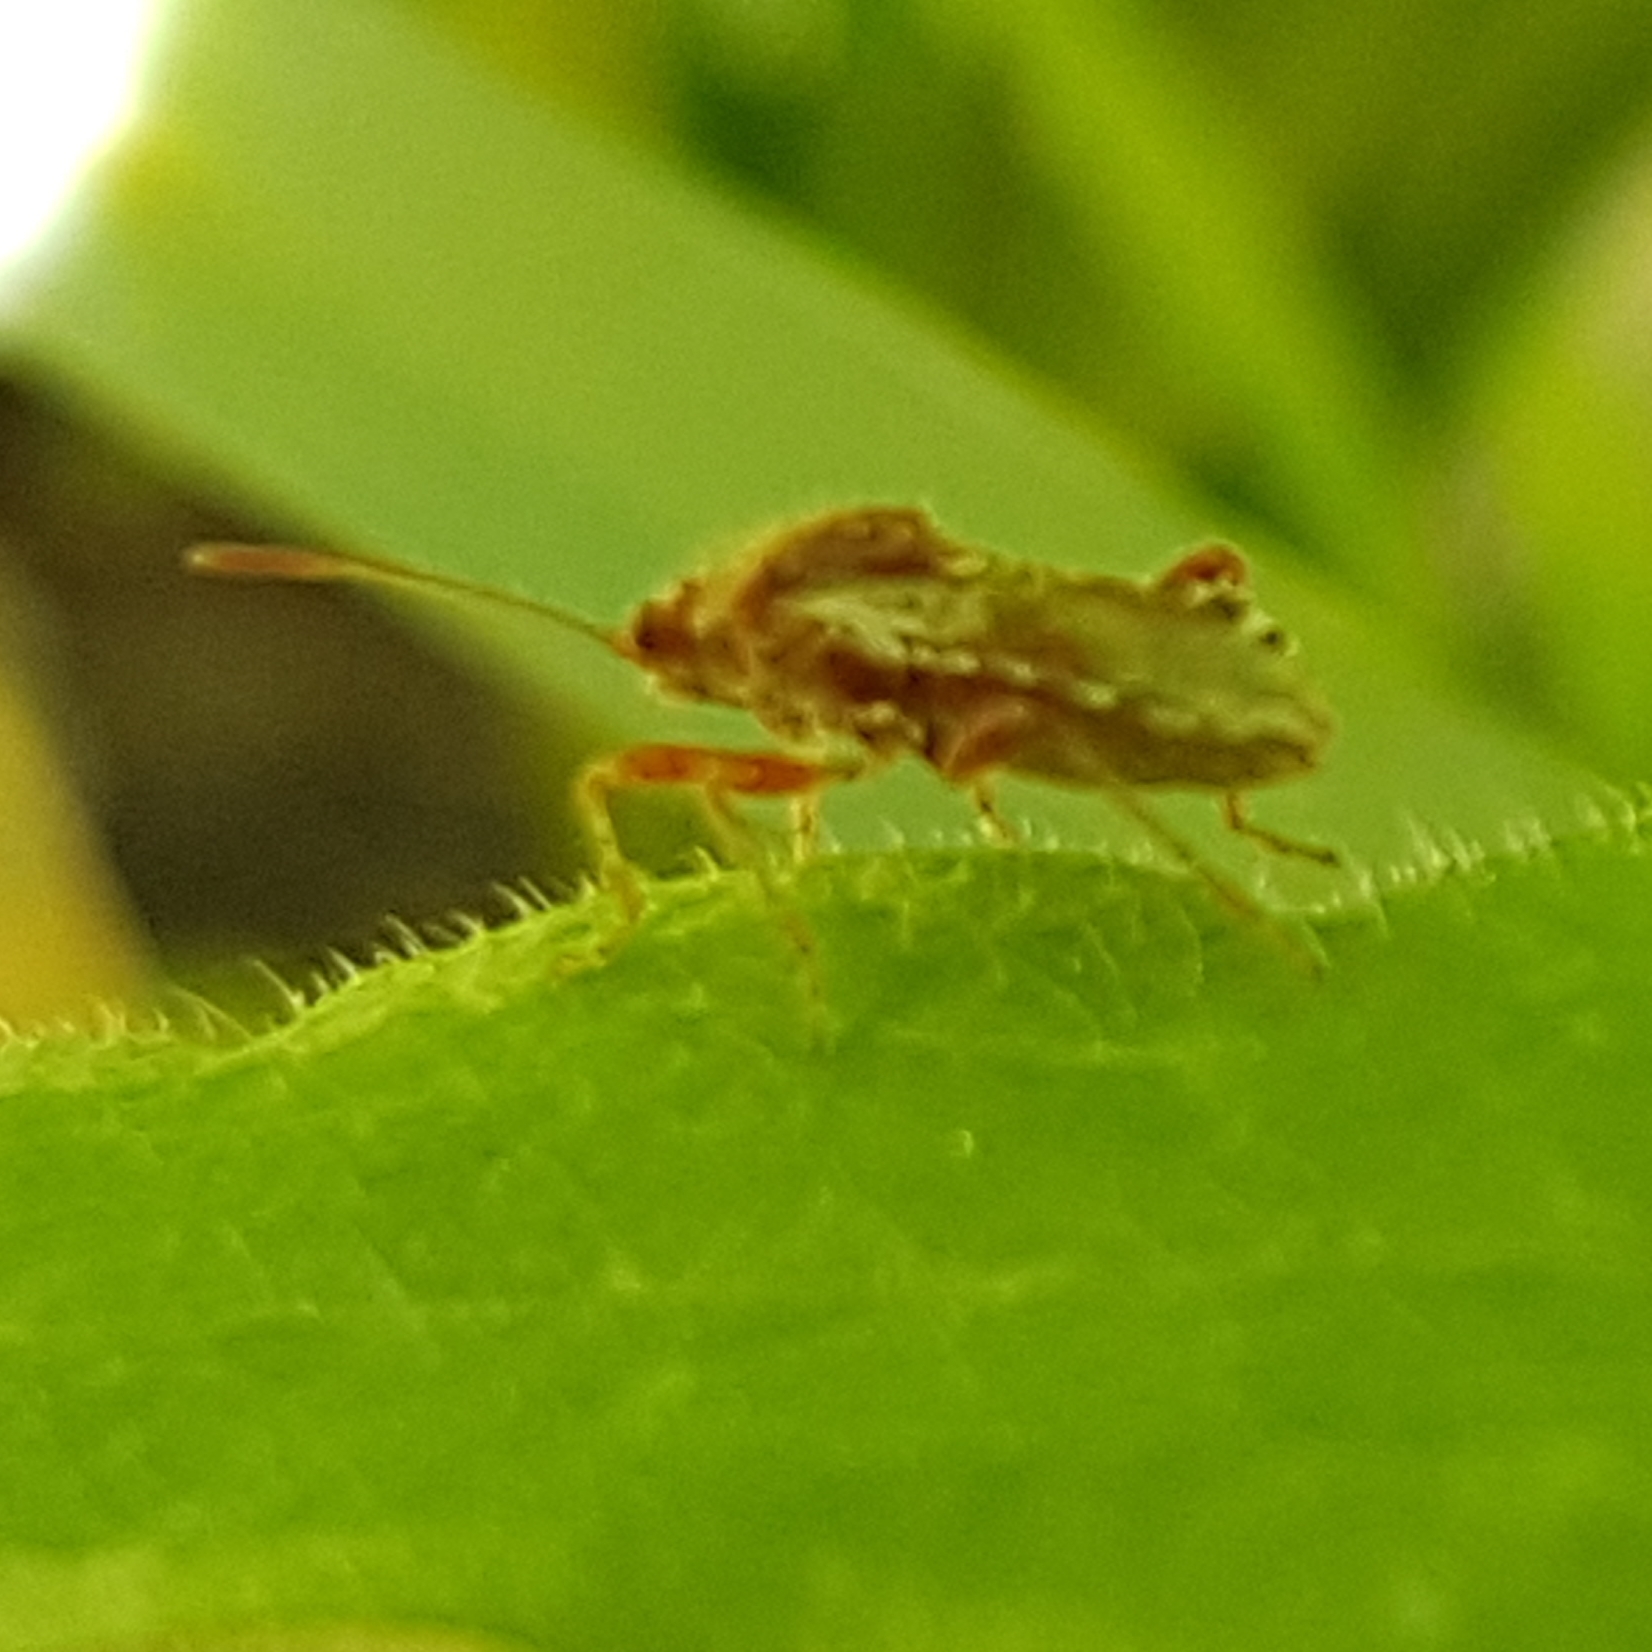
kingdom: Animalia
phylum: Arthropoda
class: Insecta
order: Hemiptera
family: Rhopalidae
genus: Rhopalus
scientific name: Rhopalus subrufus
